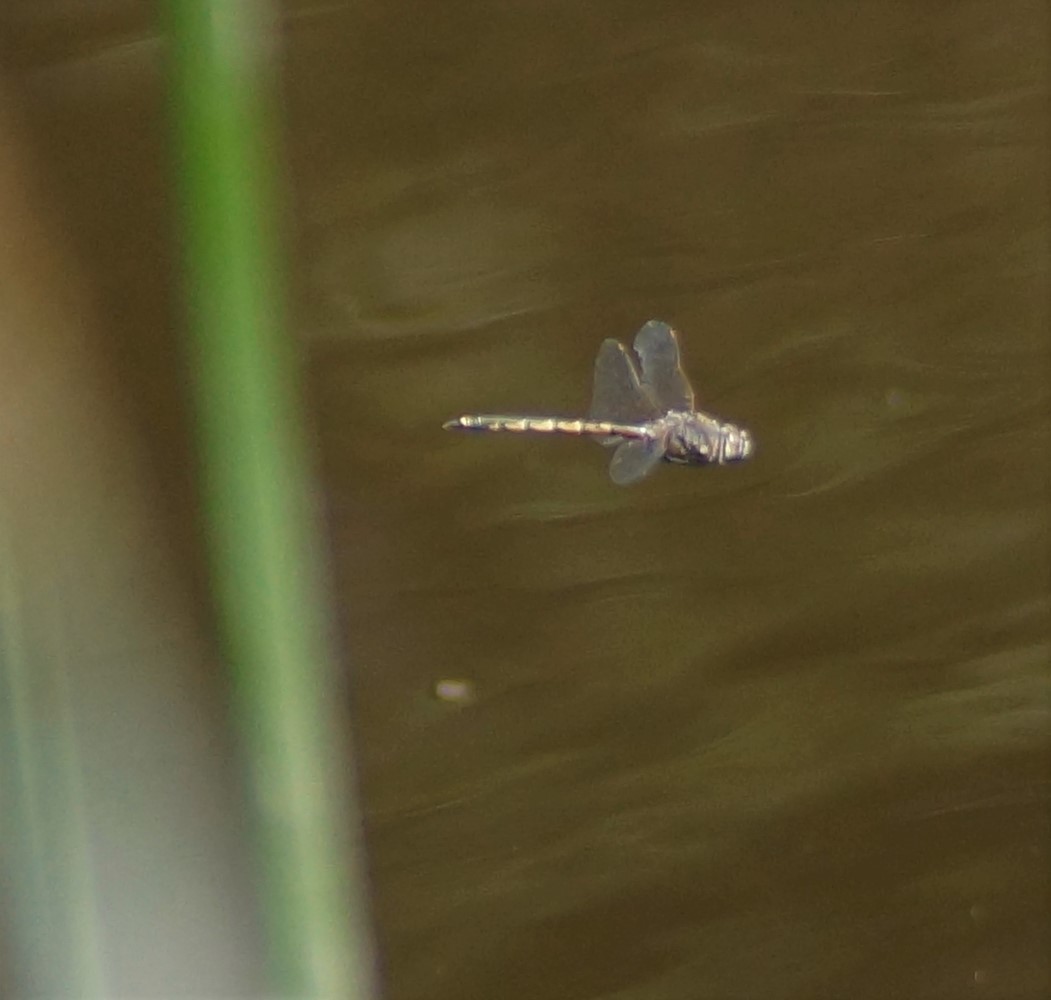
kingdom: Animalia
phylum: Arthropoda
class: Insecta
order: Odonata
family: Corduliidae
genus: Hemicordulia
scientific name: Hemicordulia tau
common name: Tau emerald
